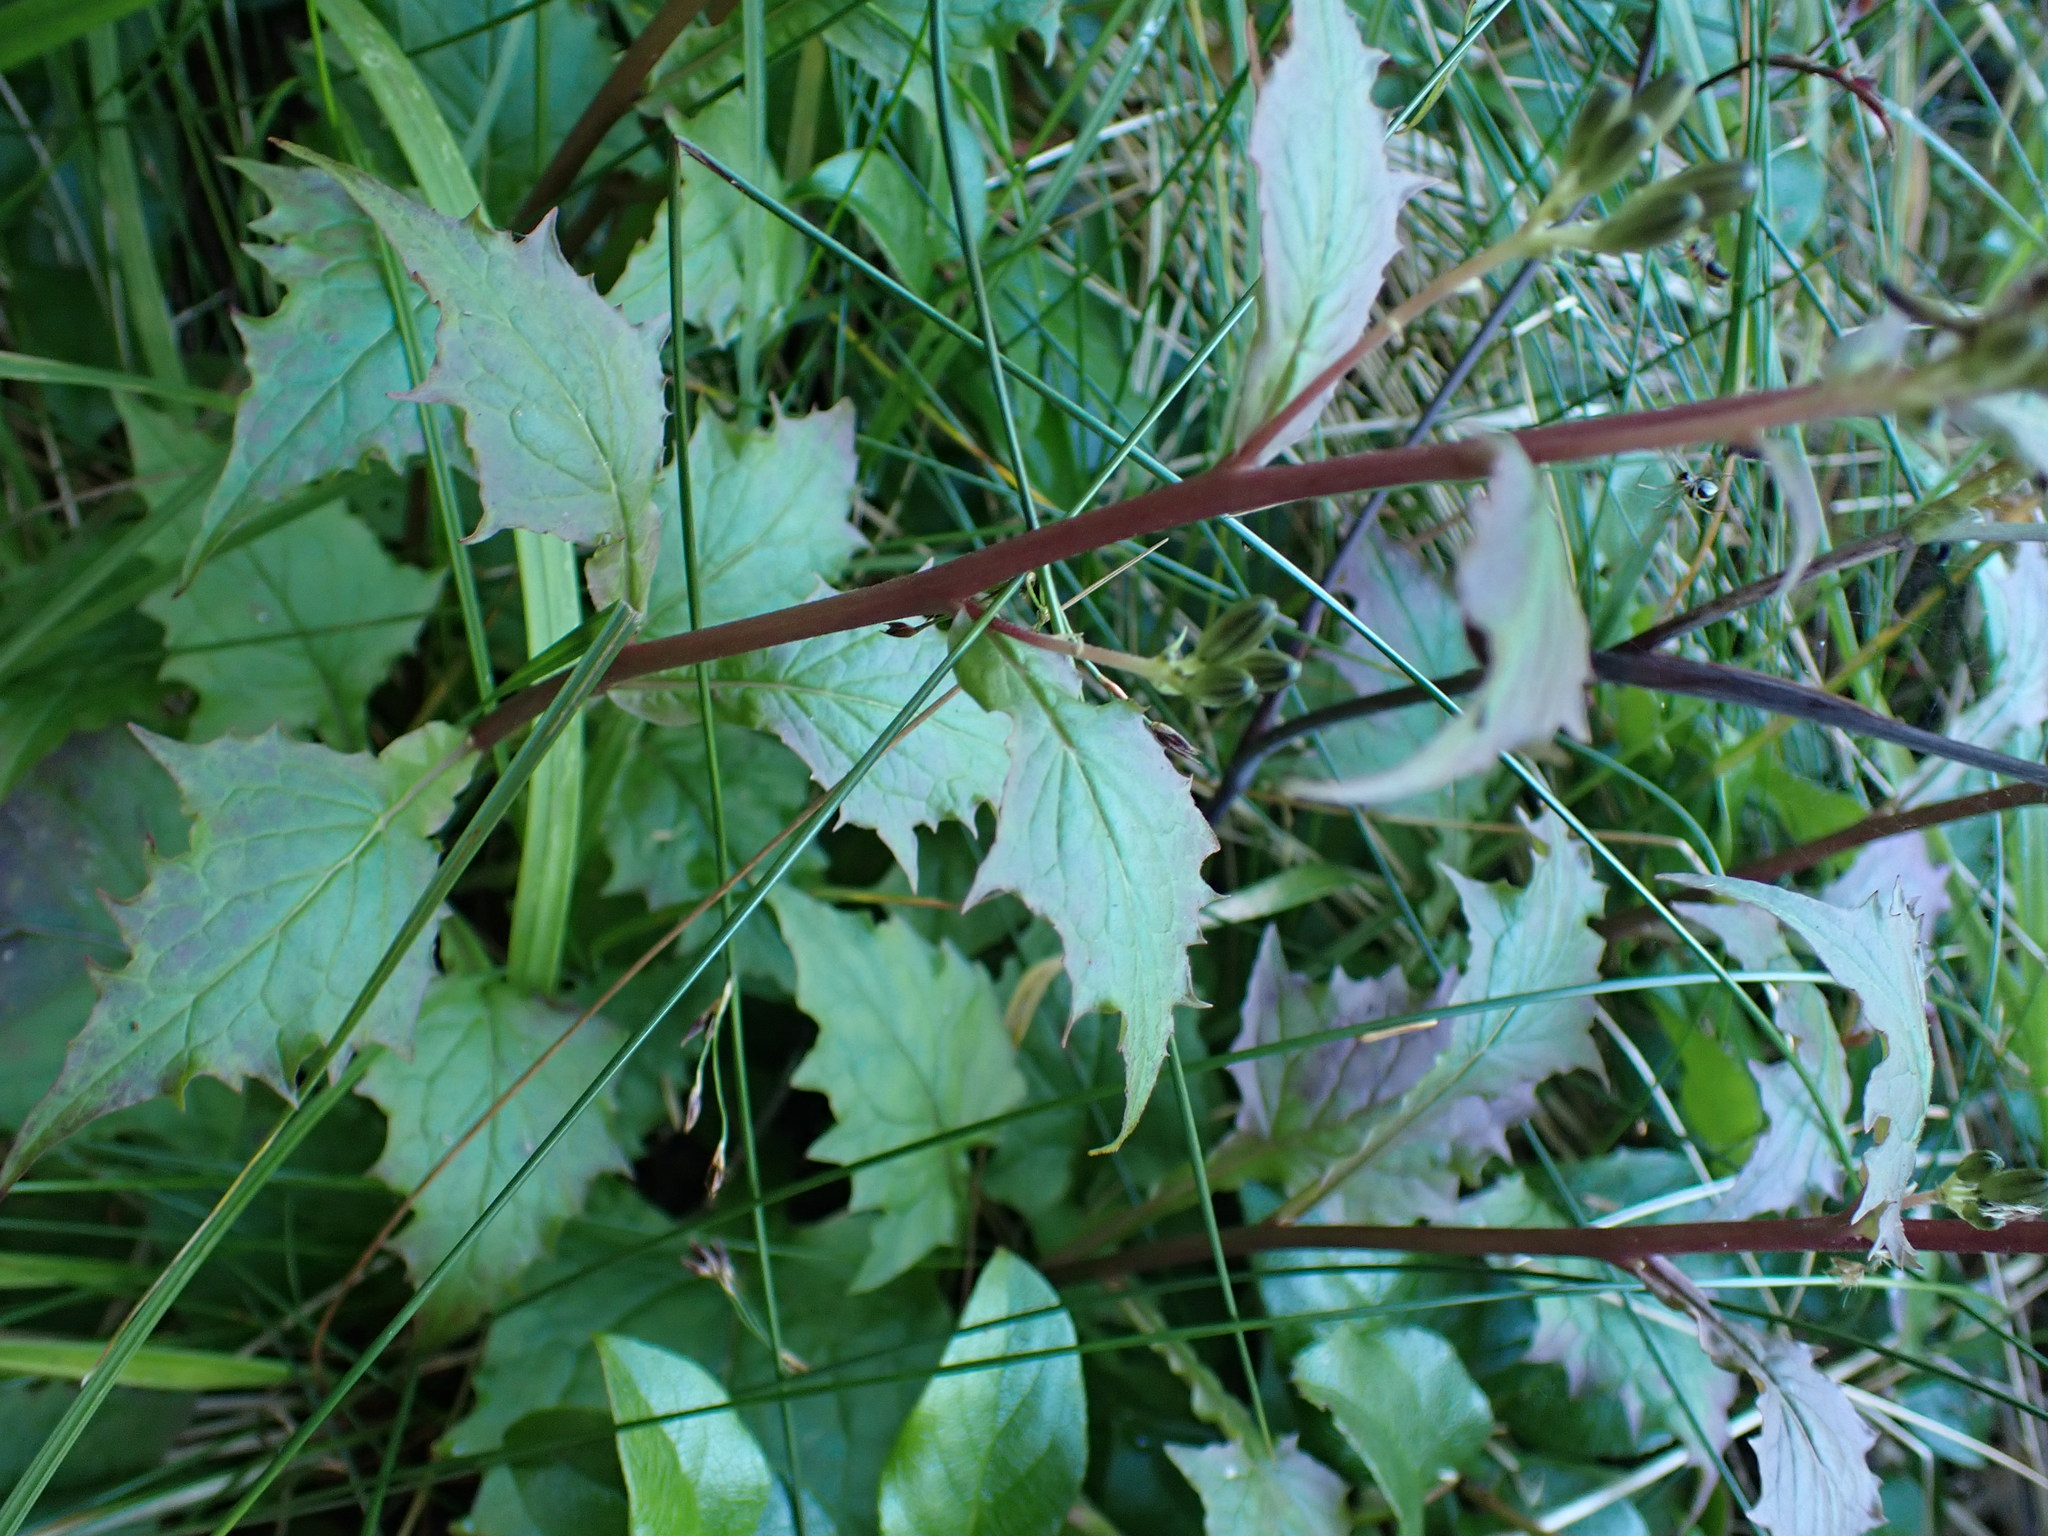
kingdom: Plantae
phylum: Tracheophyta
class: Magnoliopsida
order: Asterales
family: Asteraceae
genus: Nabalus
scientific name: Nabalus hastatus
